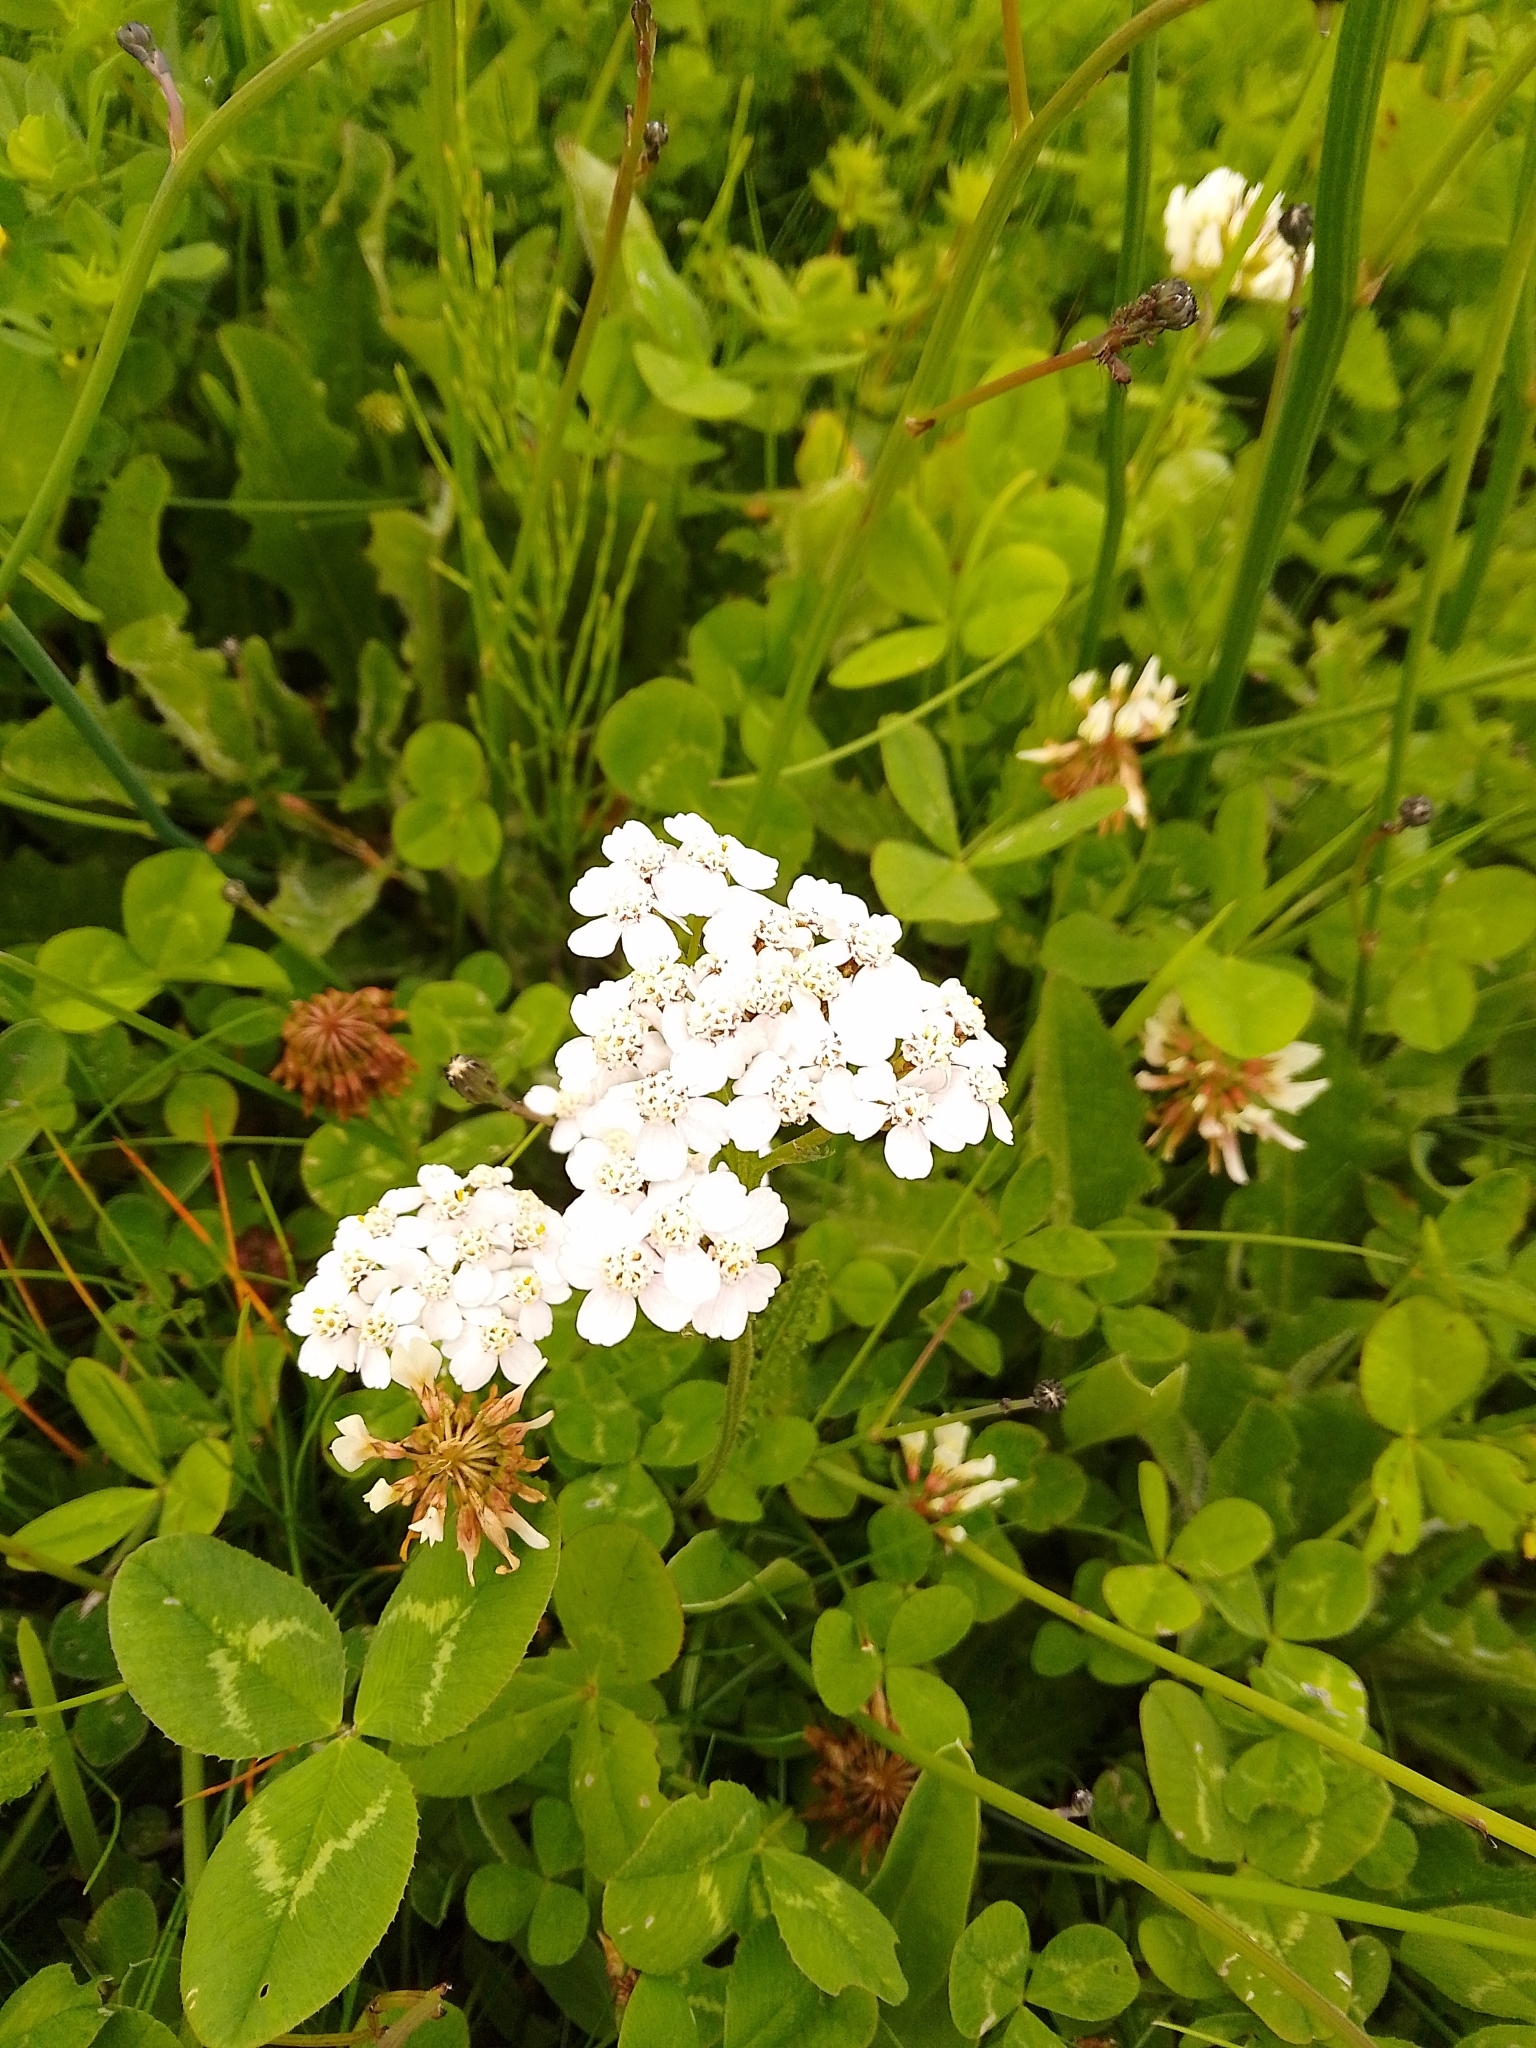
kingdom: Plantae
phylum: Tracheophyta
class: Magnoliopsida
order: Asterales
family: Asteraceae
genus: Achillea
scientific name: Achillea millefolium
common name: Yarrow
